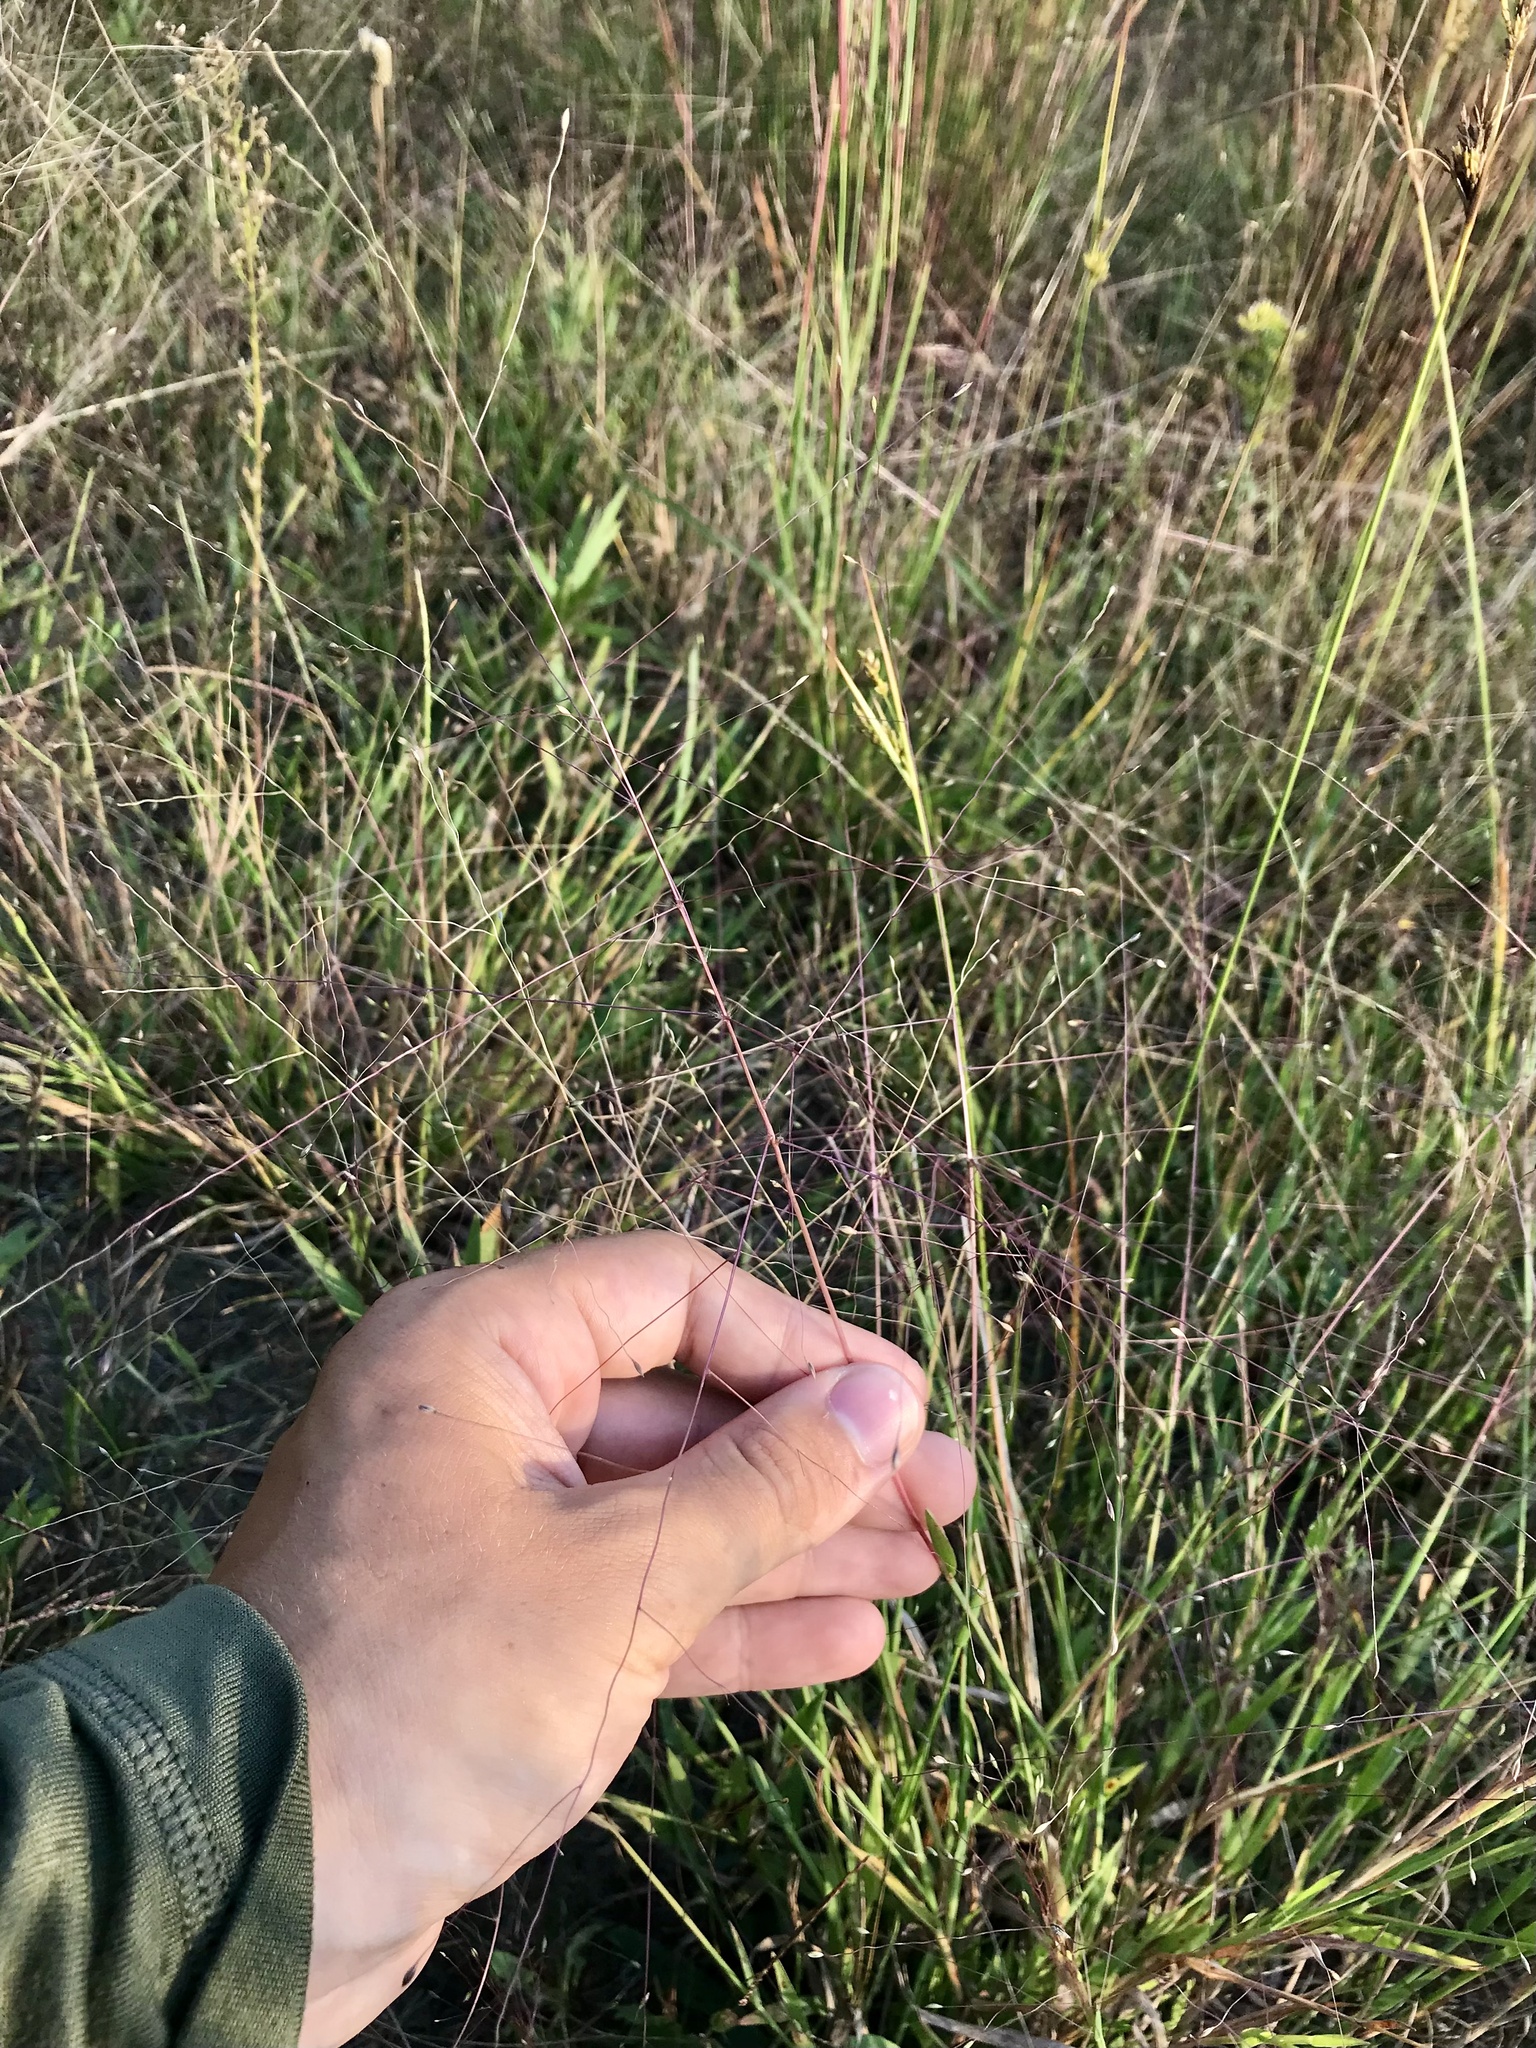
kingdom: Plantae
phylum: Tracheophyta
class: Liliopsida
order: Poales
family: Poaceae
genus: Digitaria
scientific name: Digitaria cognata
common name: Fall witchgrass
